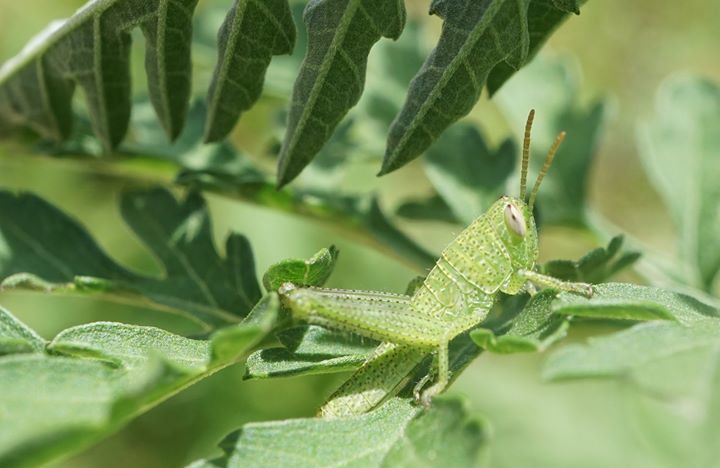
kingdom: Animalia
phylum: Arthropoda
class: Insecta
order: Orthoptera
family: Acrididae
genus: Schistocerca
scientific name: Schistocerca serialis
